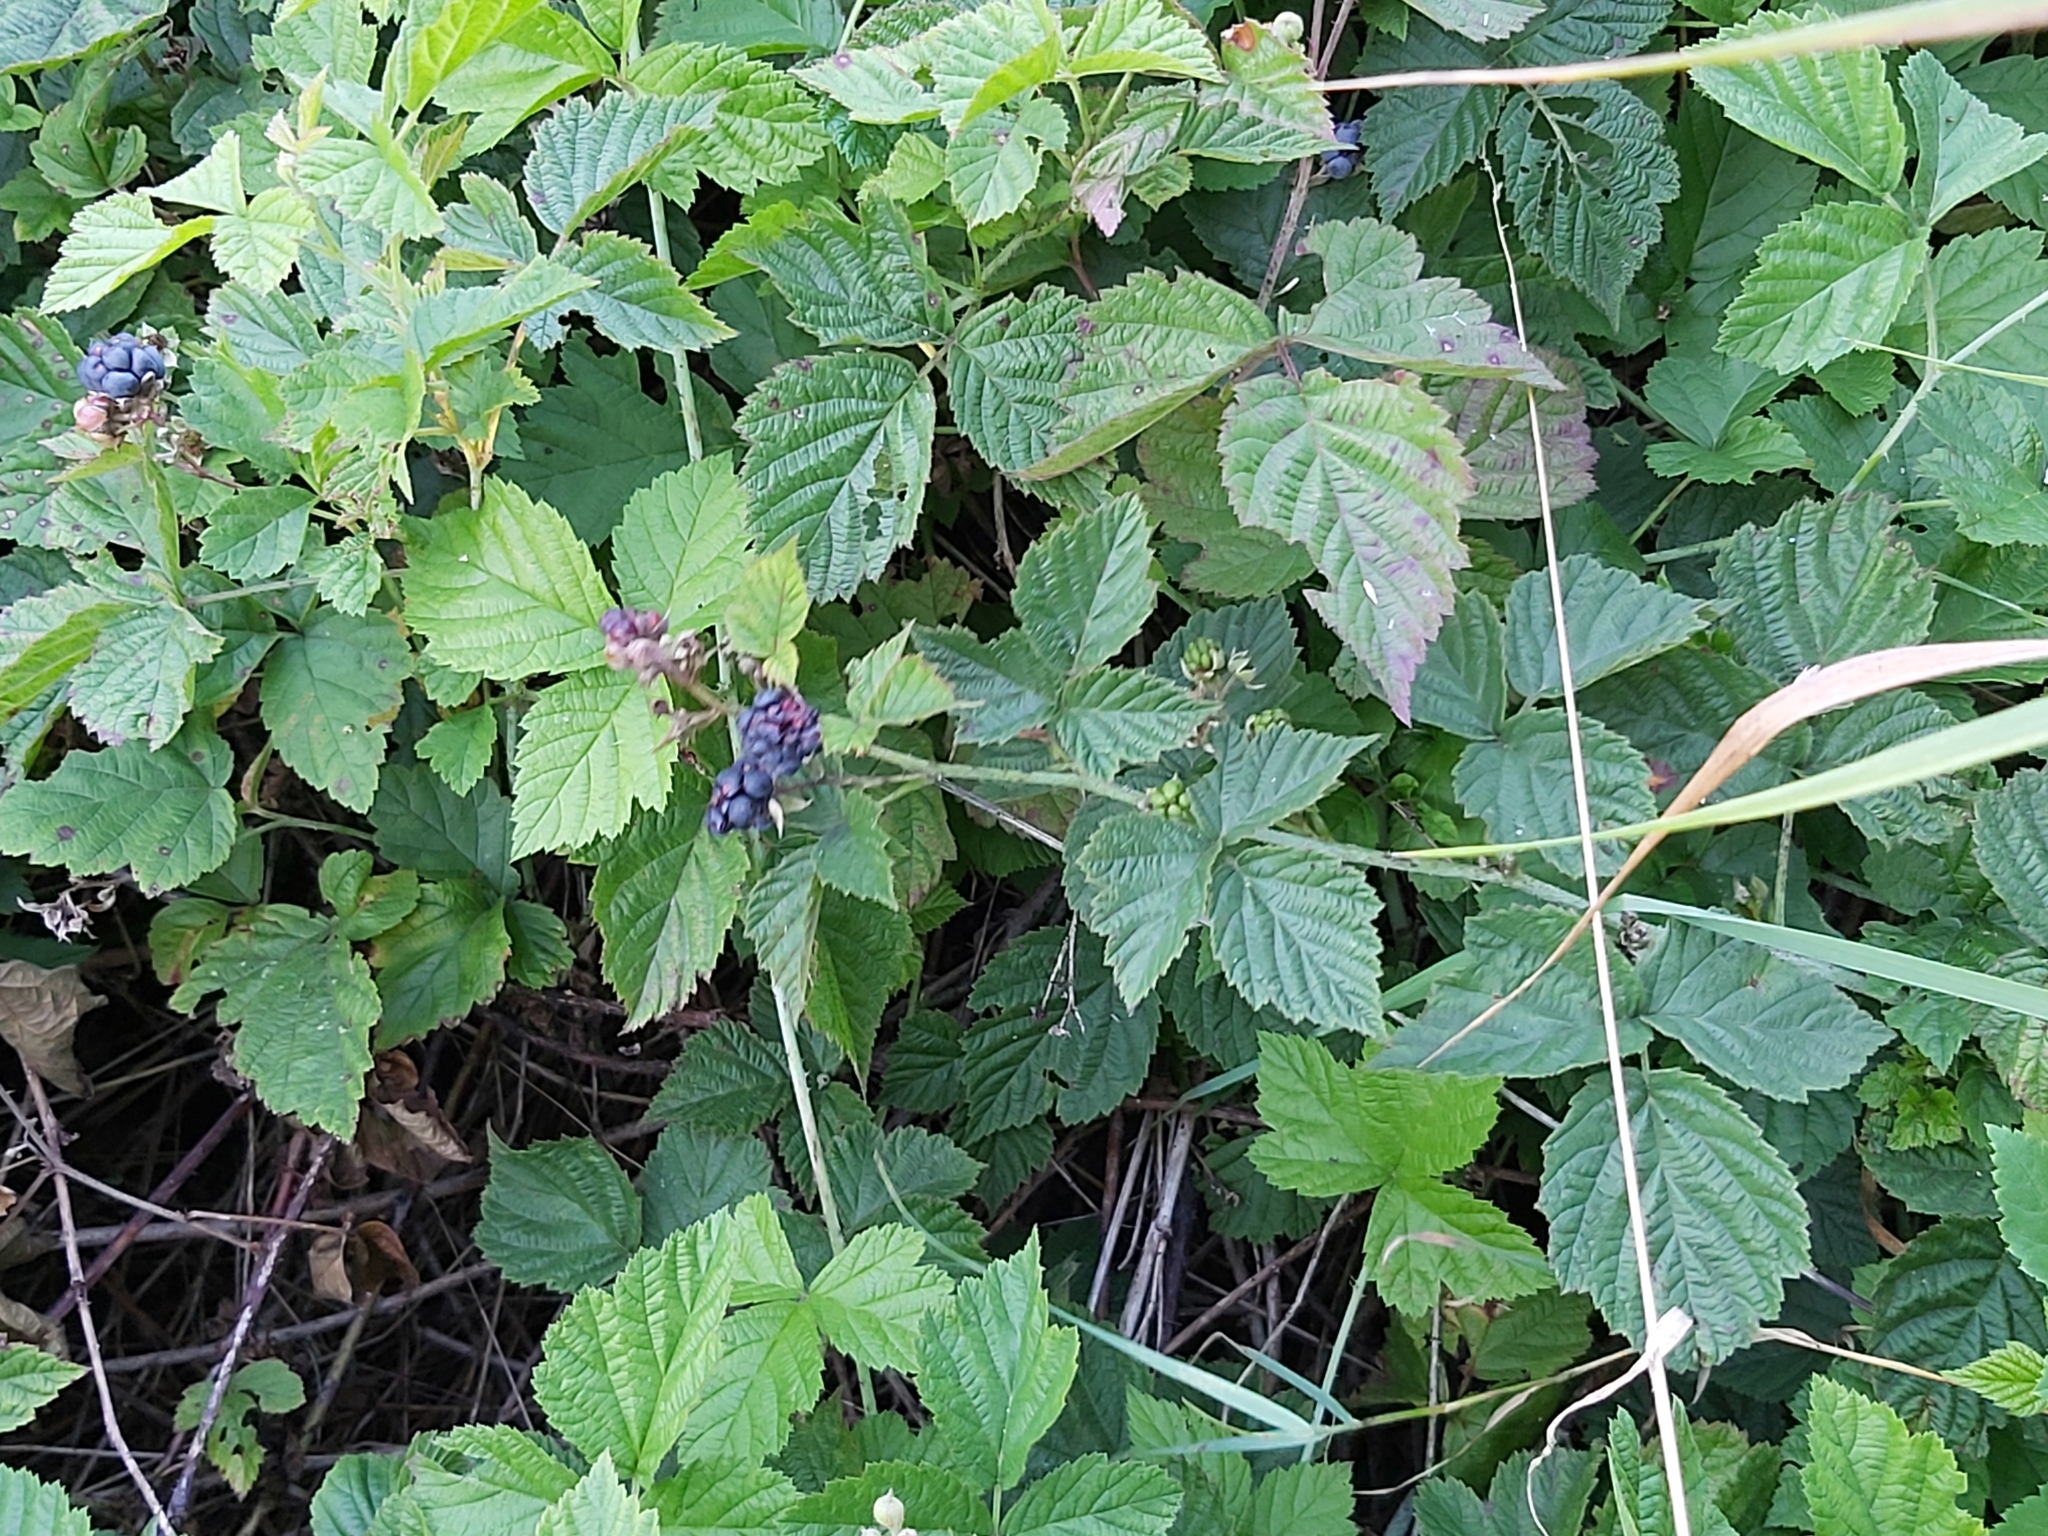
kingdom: Plantae
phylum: Tracheophyta
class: Magnoliopsida
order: Rosales
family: Rosaceae
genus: Rubus
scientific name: Rubus caesius
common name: Dewberry
